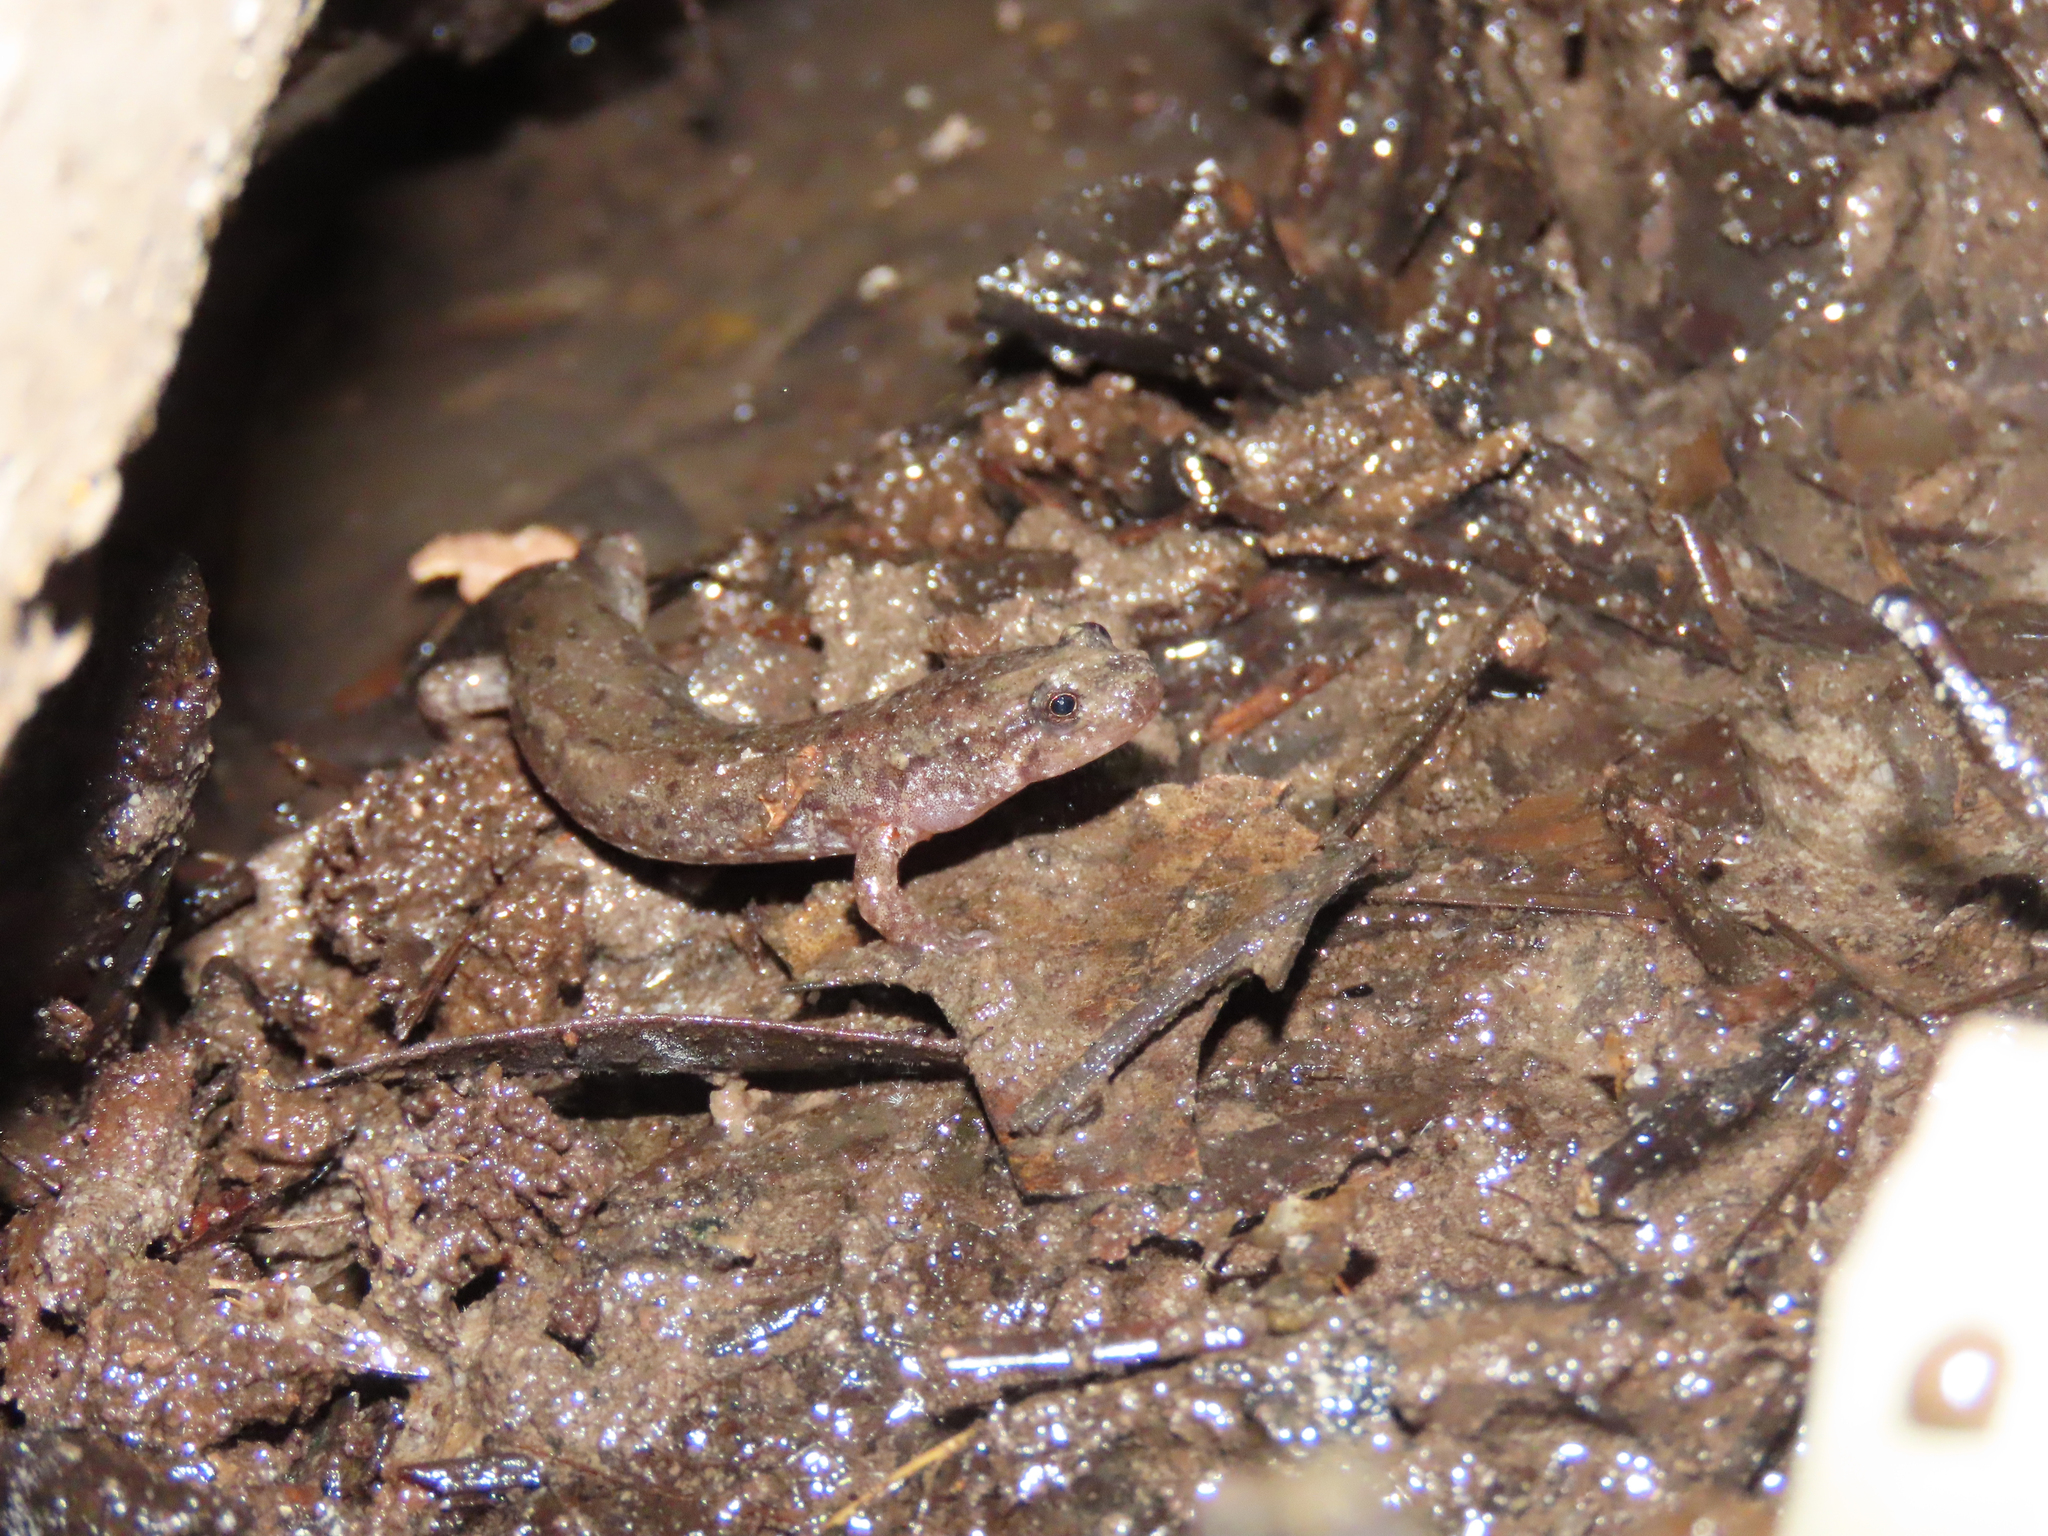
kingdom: Animalia
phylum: Chordata
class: Amphibia
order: Caudata
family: Plethodontidae
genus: Desmognathus
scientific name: Desmognathus fuscus
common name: Northern dusky salamander
